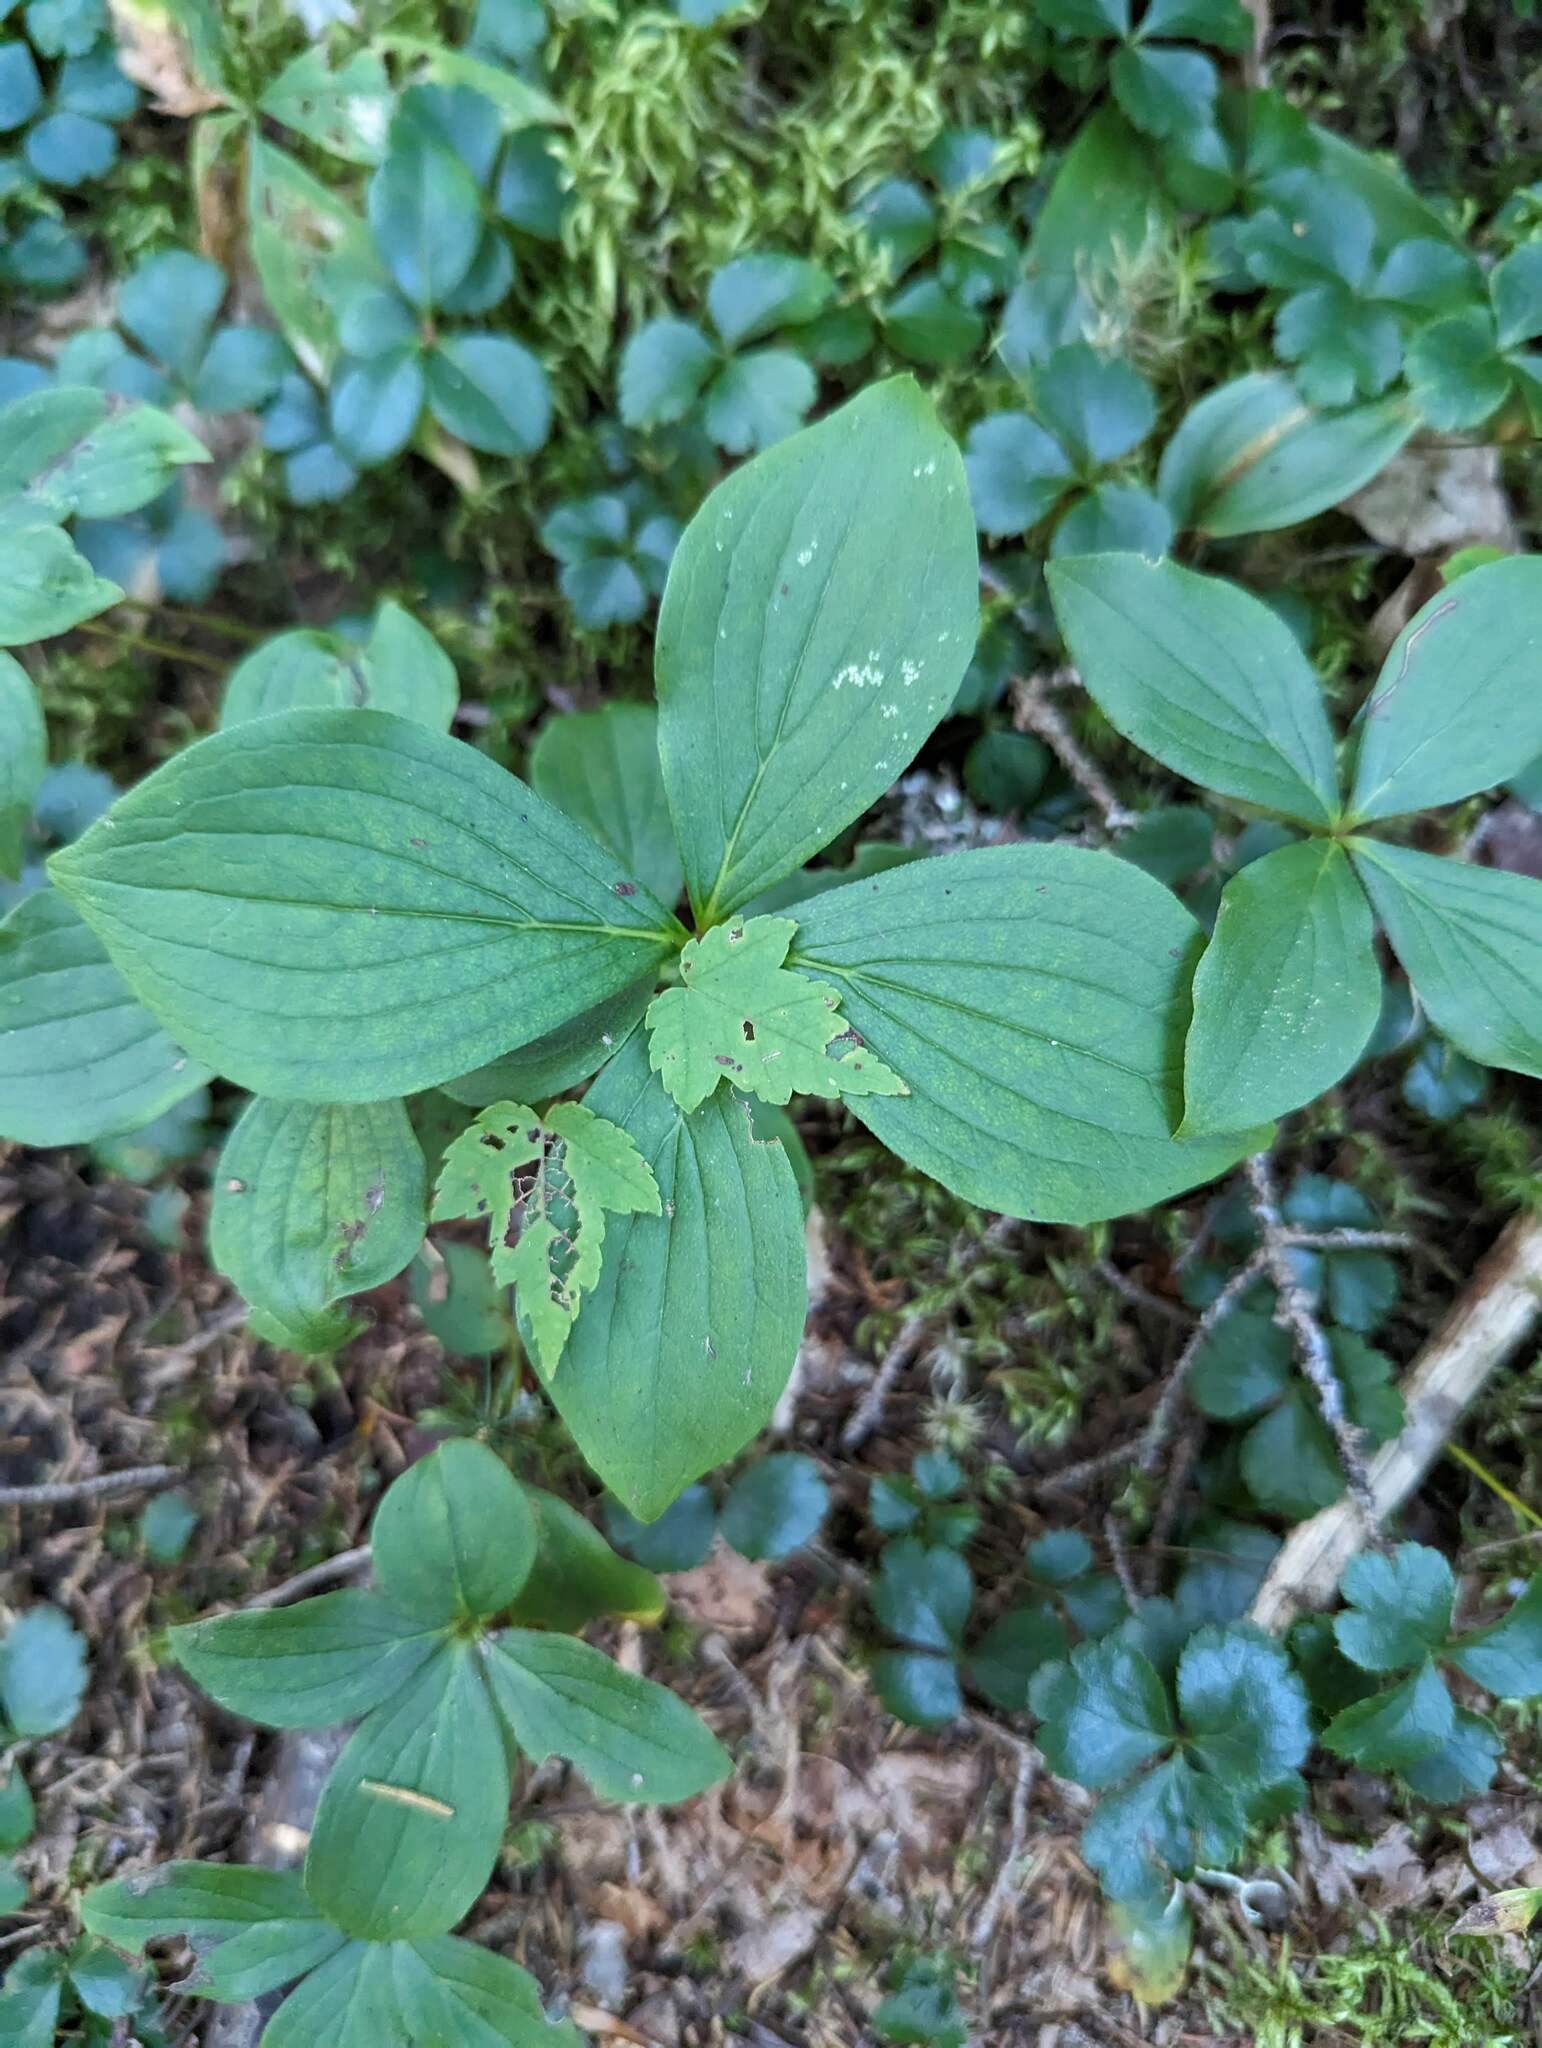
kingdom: Plantae
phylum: Tracheophyta
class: Magnoliopsida
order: Cornales
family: Cornaceae
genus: Cornus
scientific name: Cornus canadensis
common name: Creeping dogwood
